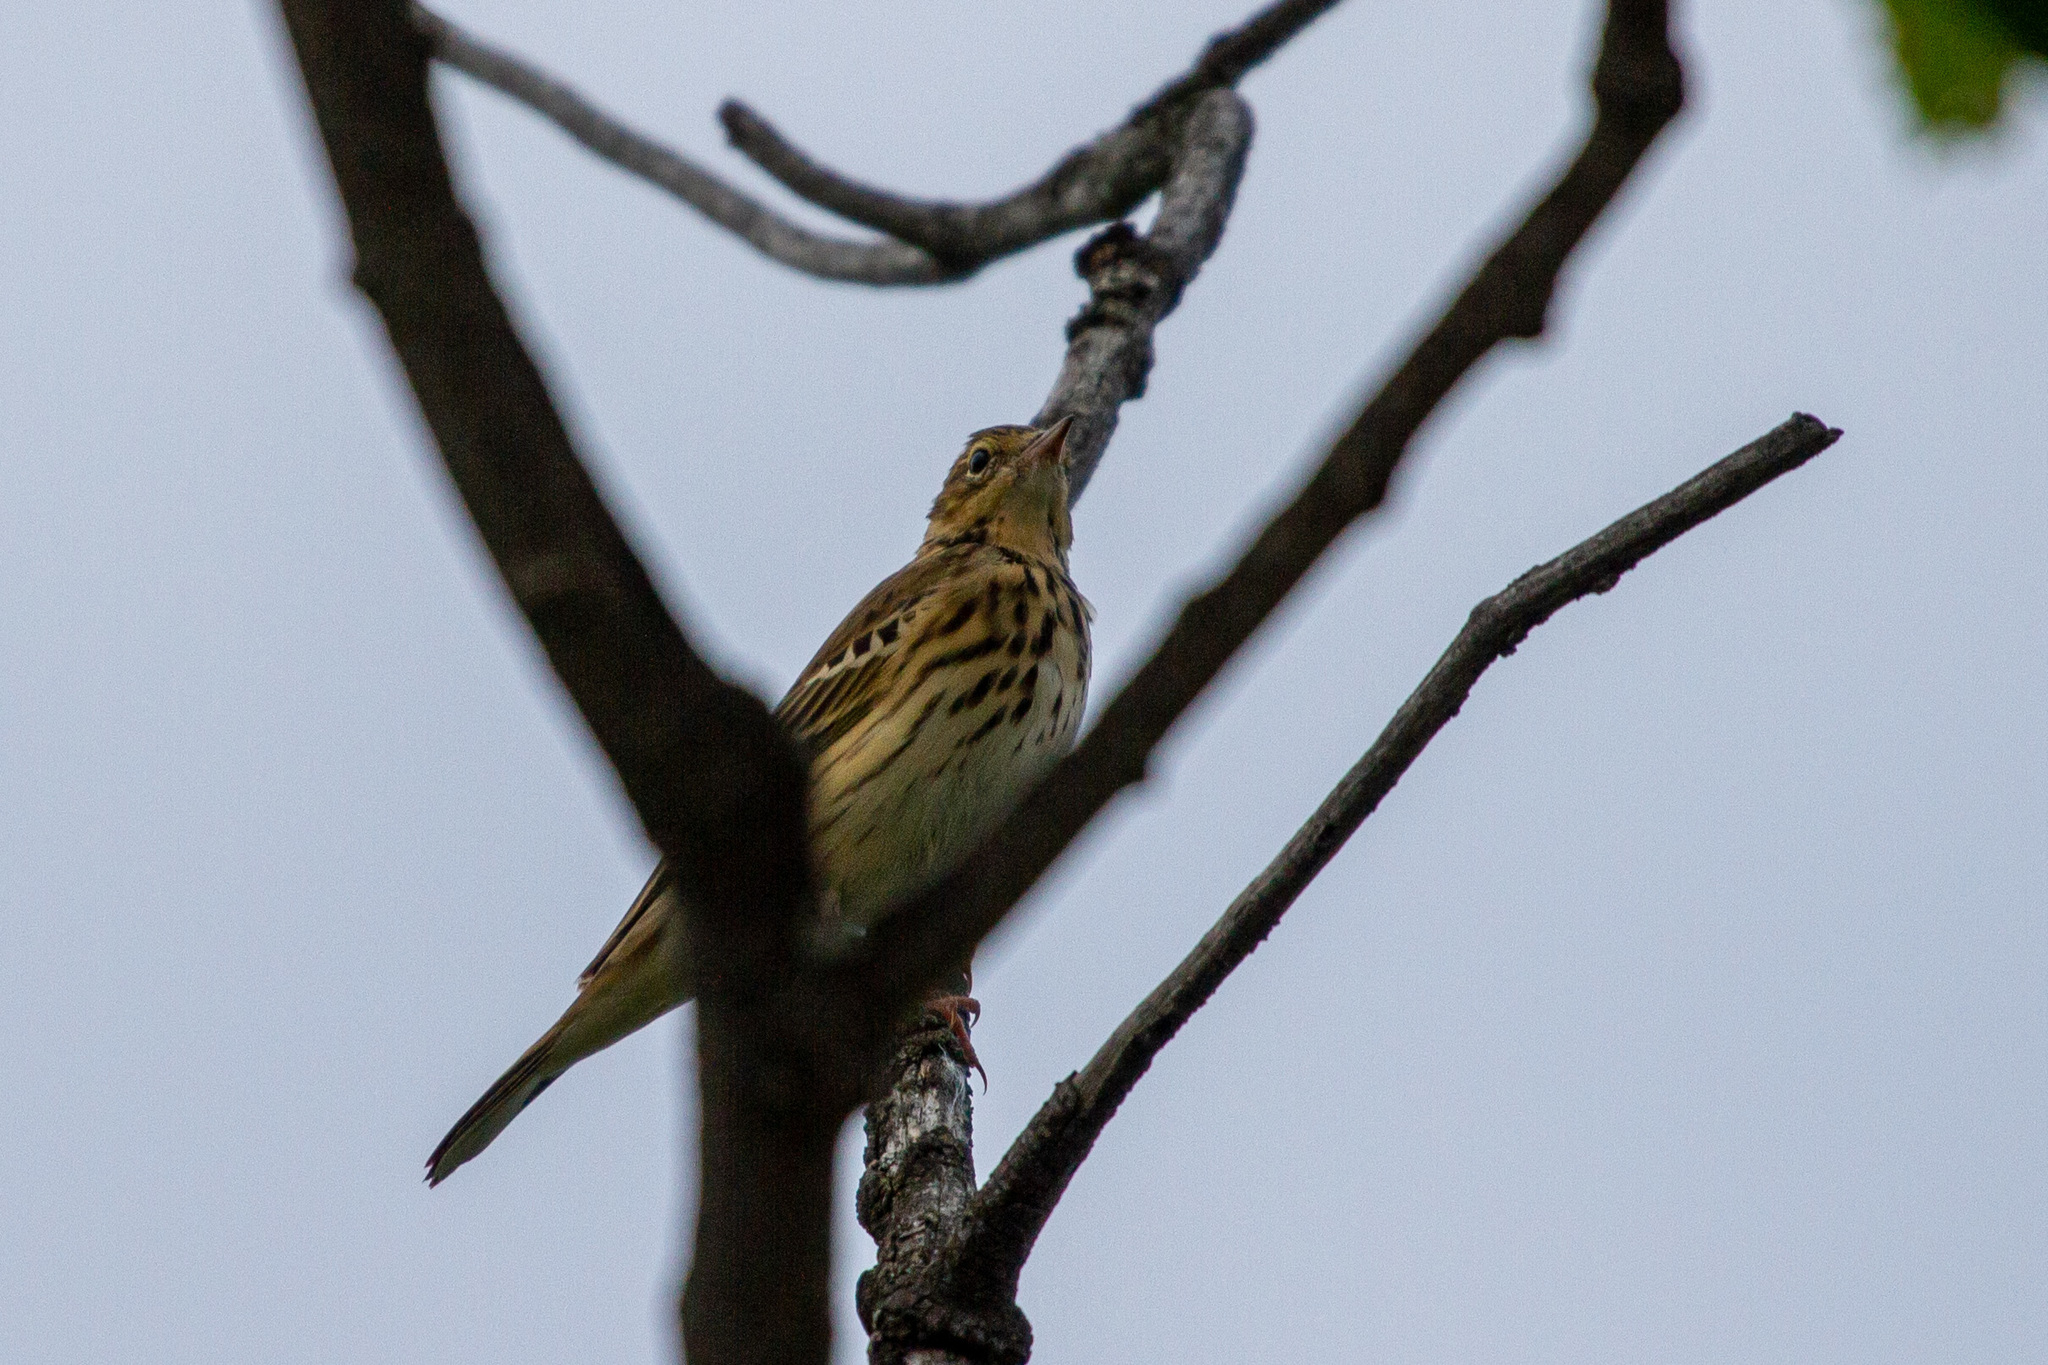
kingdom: Animalia
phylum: Chordata
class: Aves
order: Passeriformes
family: Motacillidae
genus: Anthus
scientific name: Anthus trivialis
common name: Tree pipit
